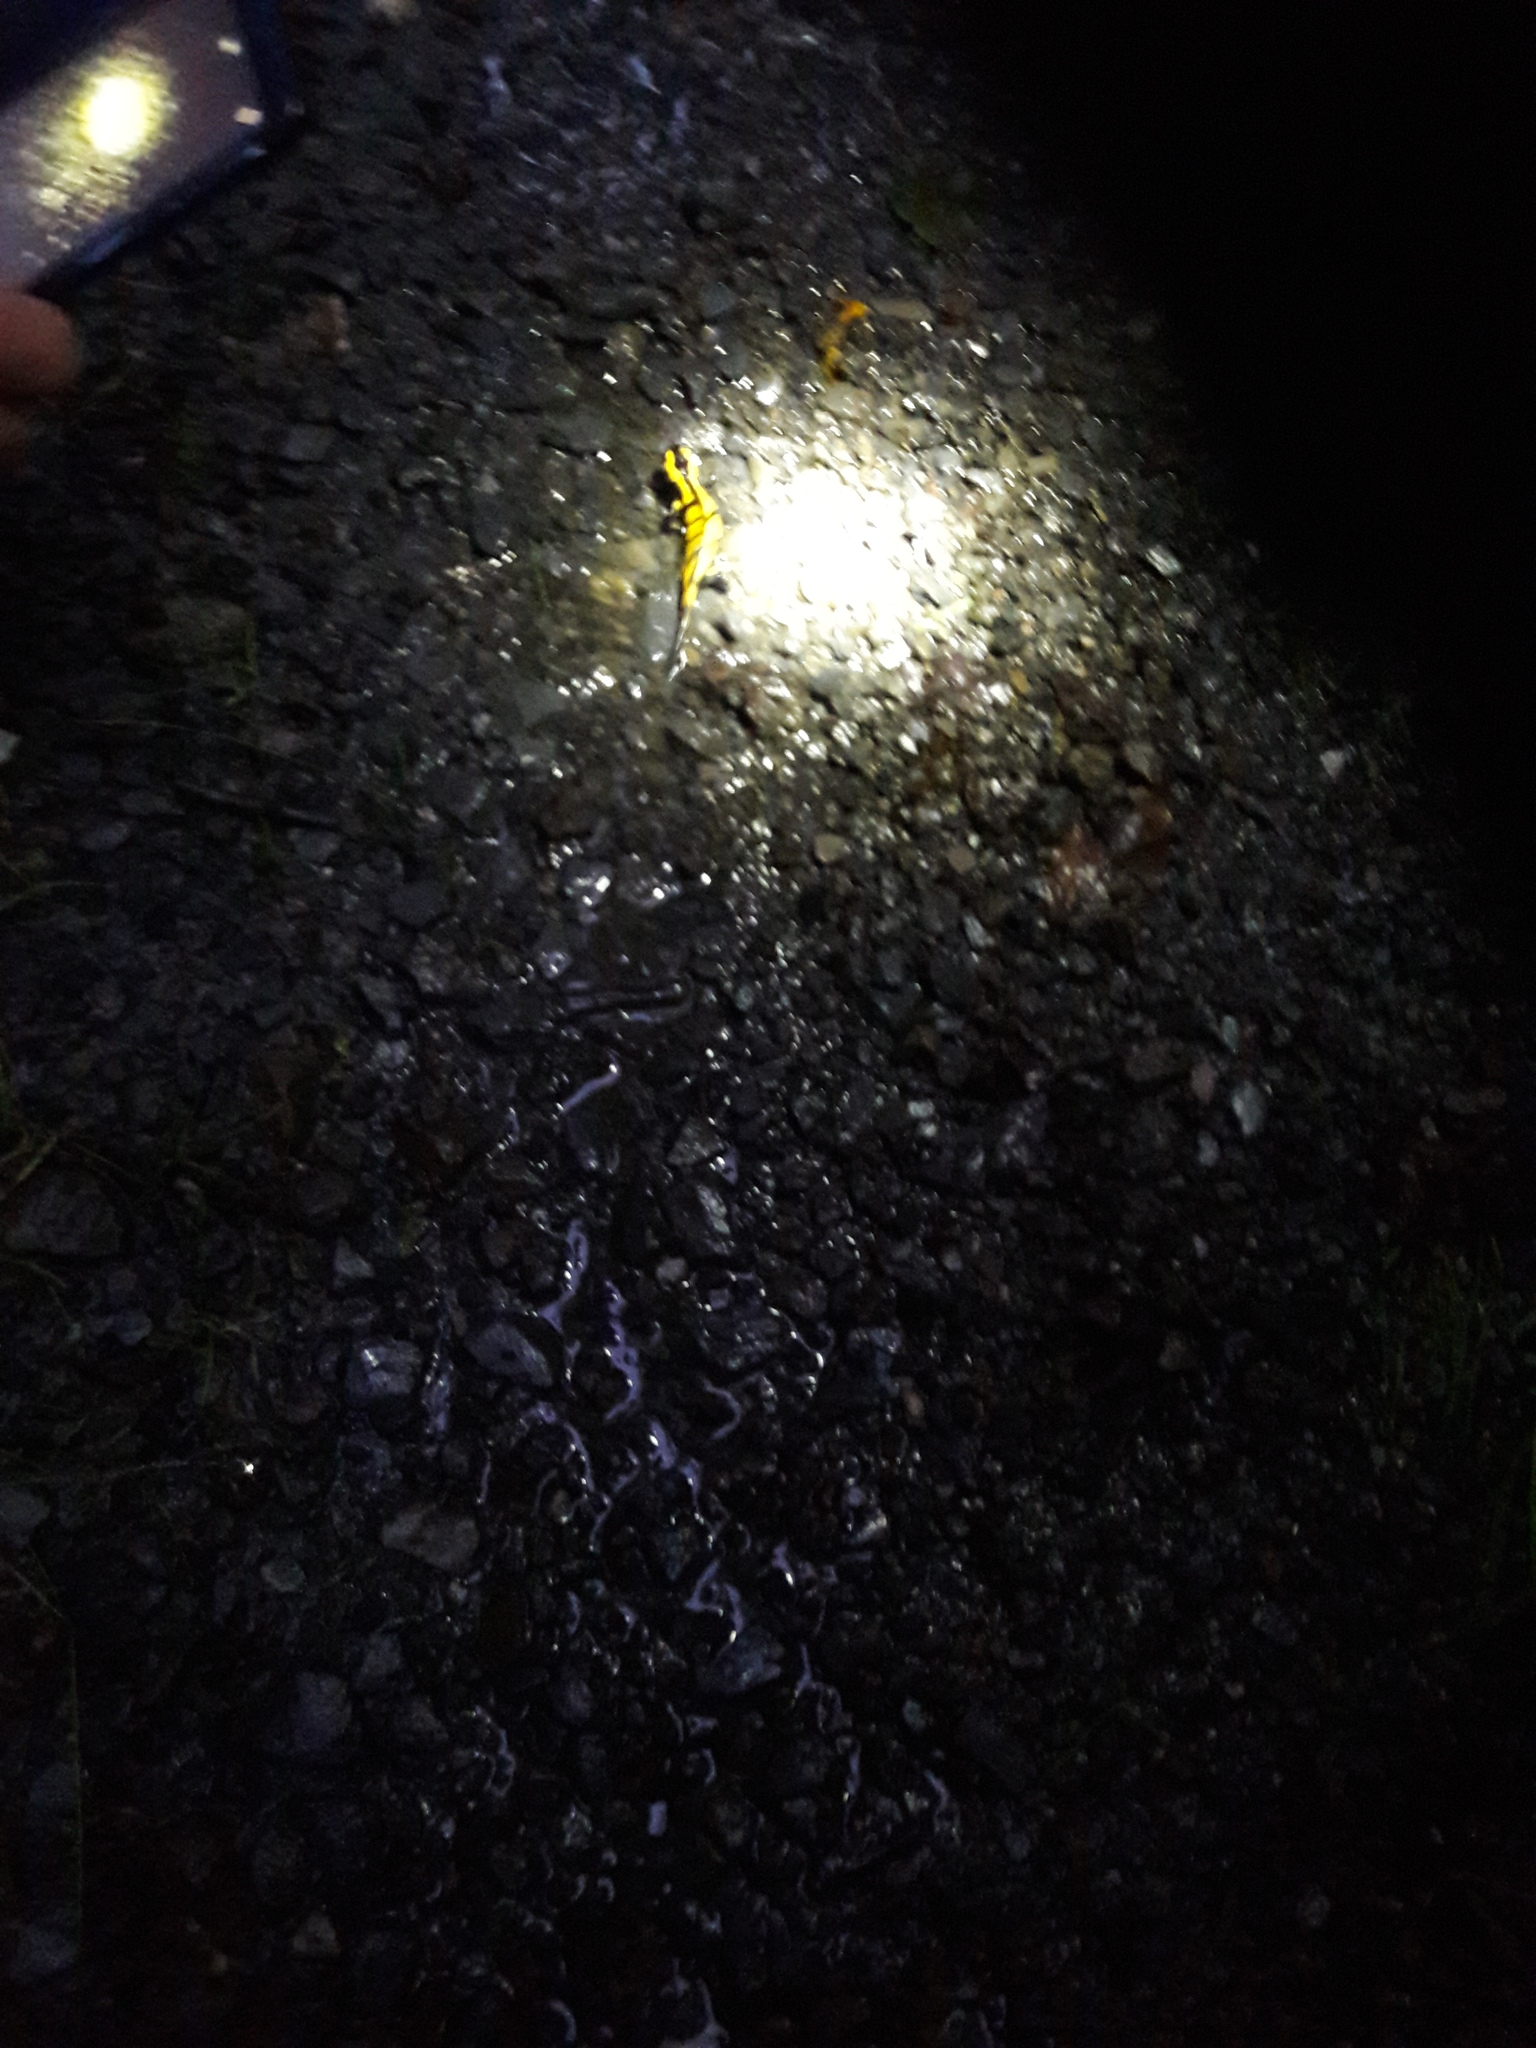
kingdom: Animalia
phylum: Chordata
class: Amphibia
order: Caudata
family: Salamandridae
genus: Salamandra
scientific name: Salamandra salamandra
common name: Fire salamander
